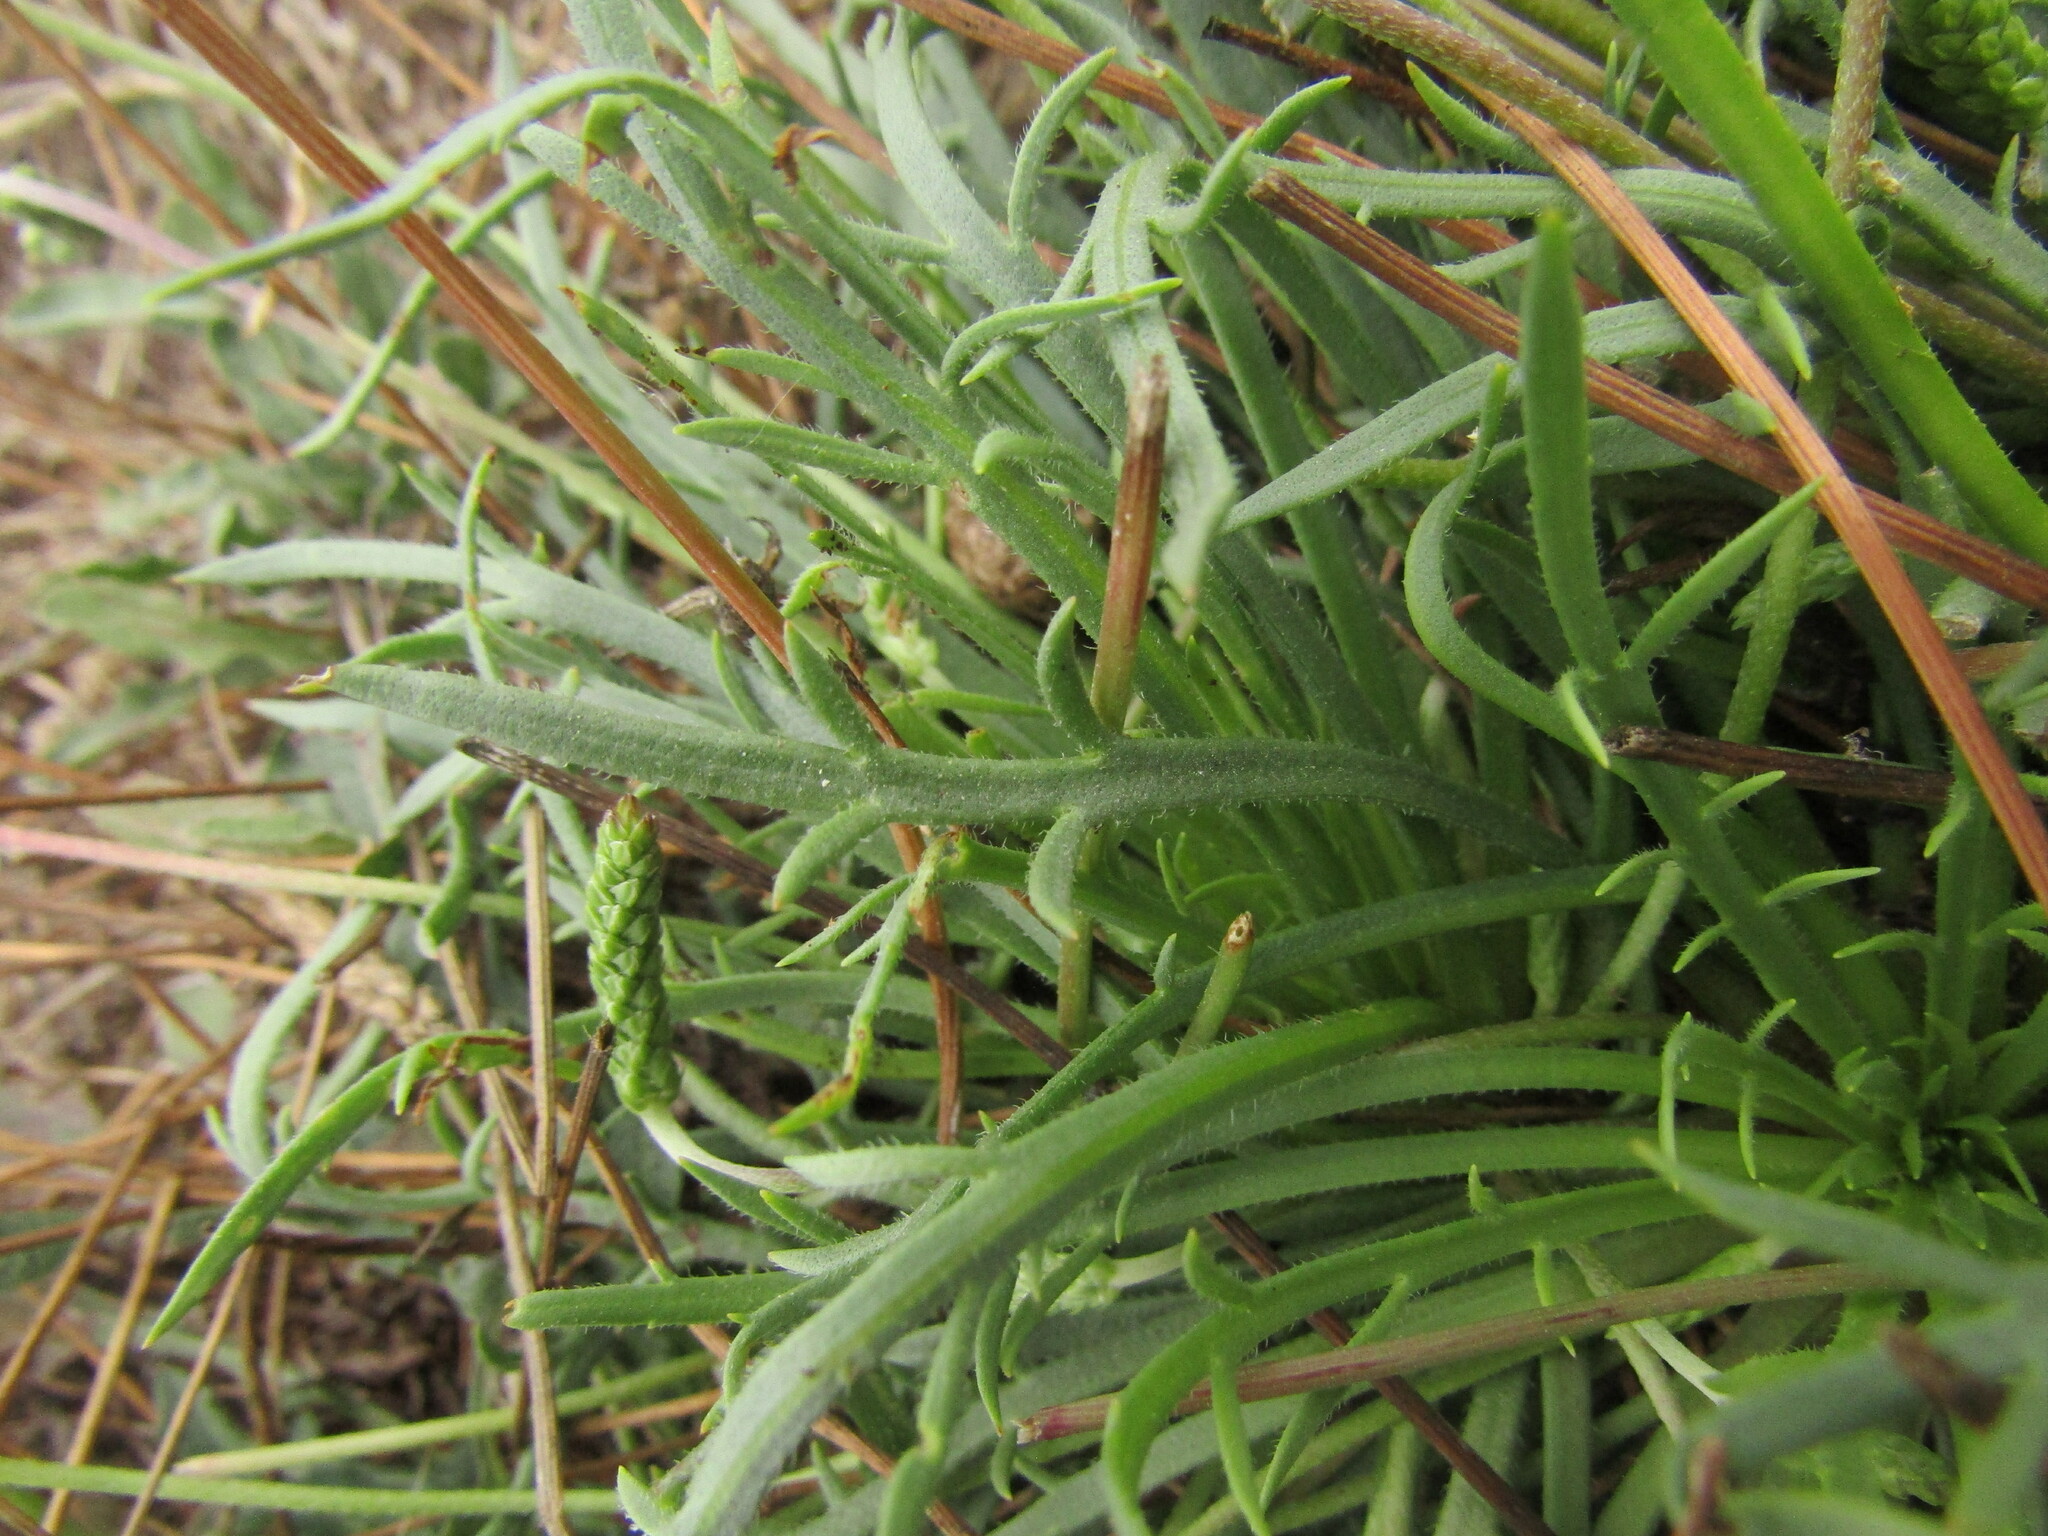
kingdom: Plantae
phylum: Tracheophyta
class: Magnoliopsida
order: Lamiales
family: Plantaginaceae
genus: Plantago
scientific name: Plantago coronopus
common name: Buck's-horn plantain
